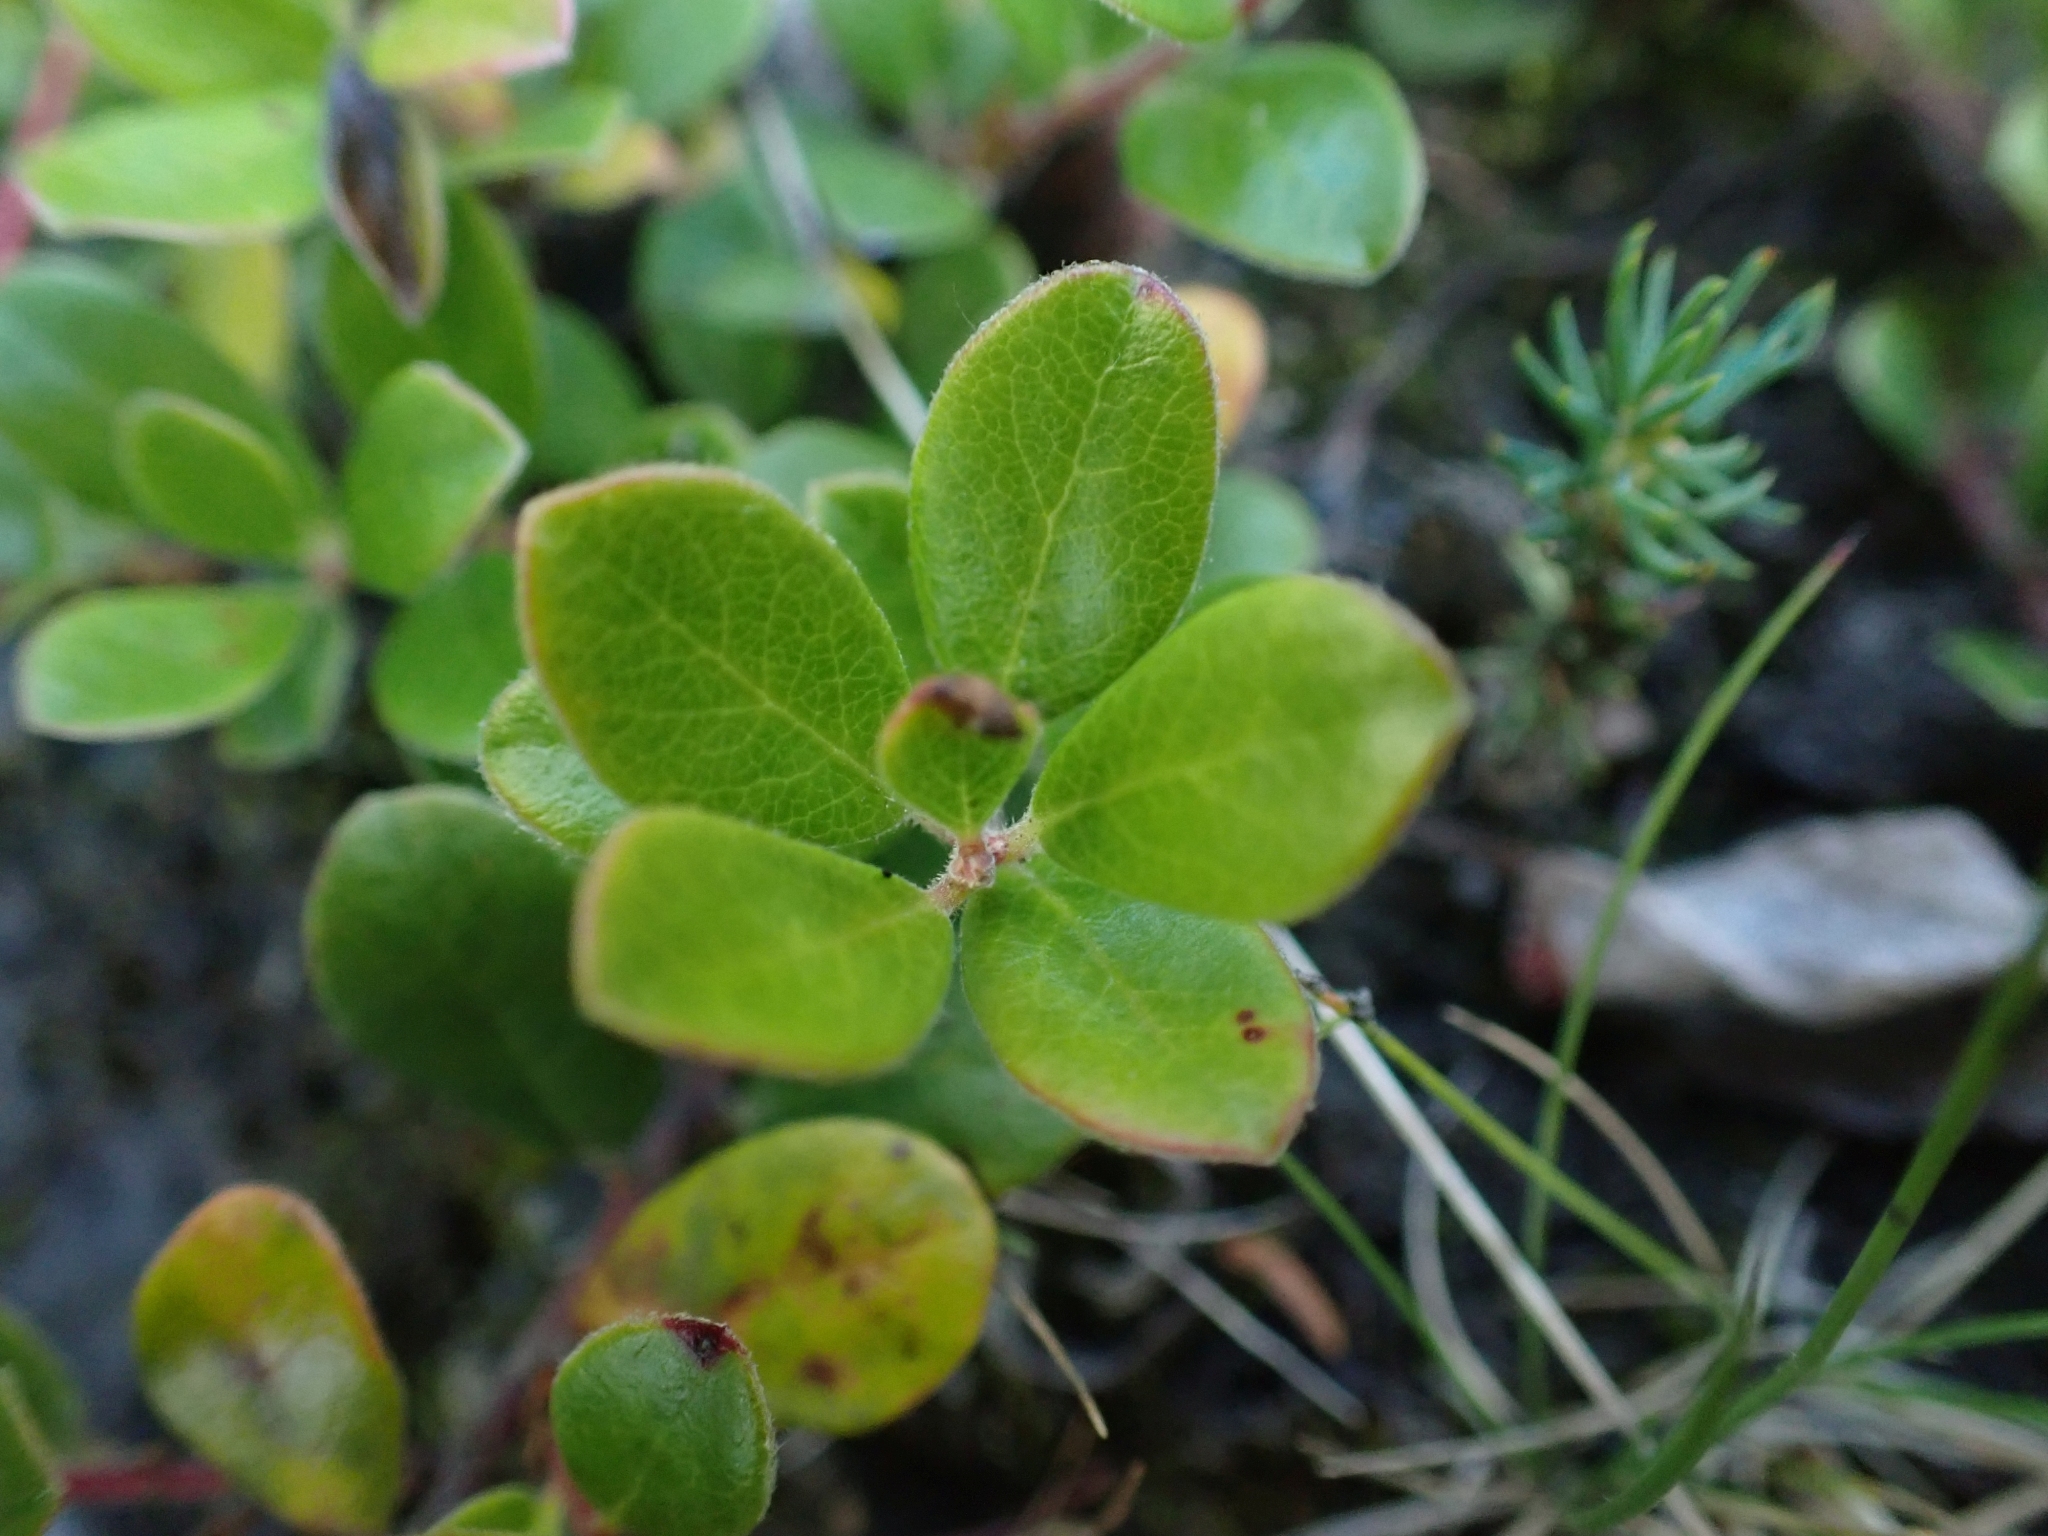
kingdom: Plantae
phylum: Tracheophyta
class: Magnoliopsida
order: Ericales
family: Ericaceae
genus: Arctostaphylos
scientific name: Arctostaphylos uva-ursi
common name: Bearberry
